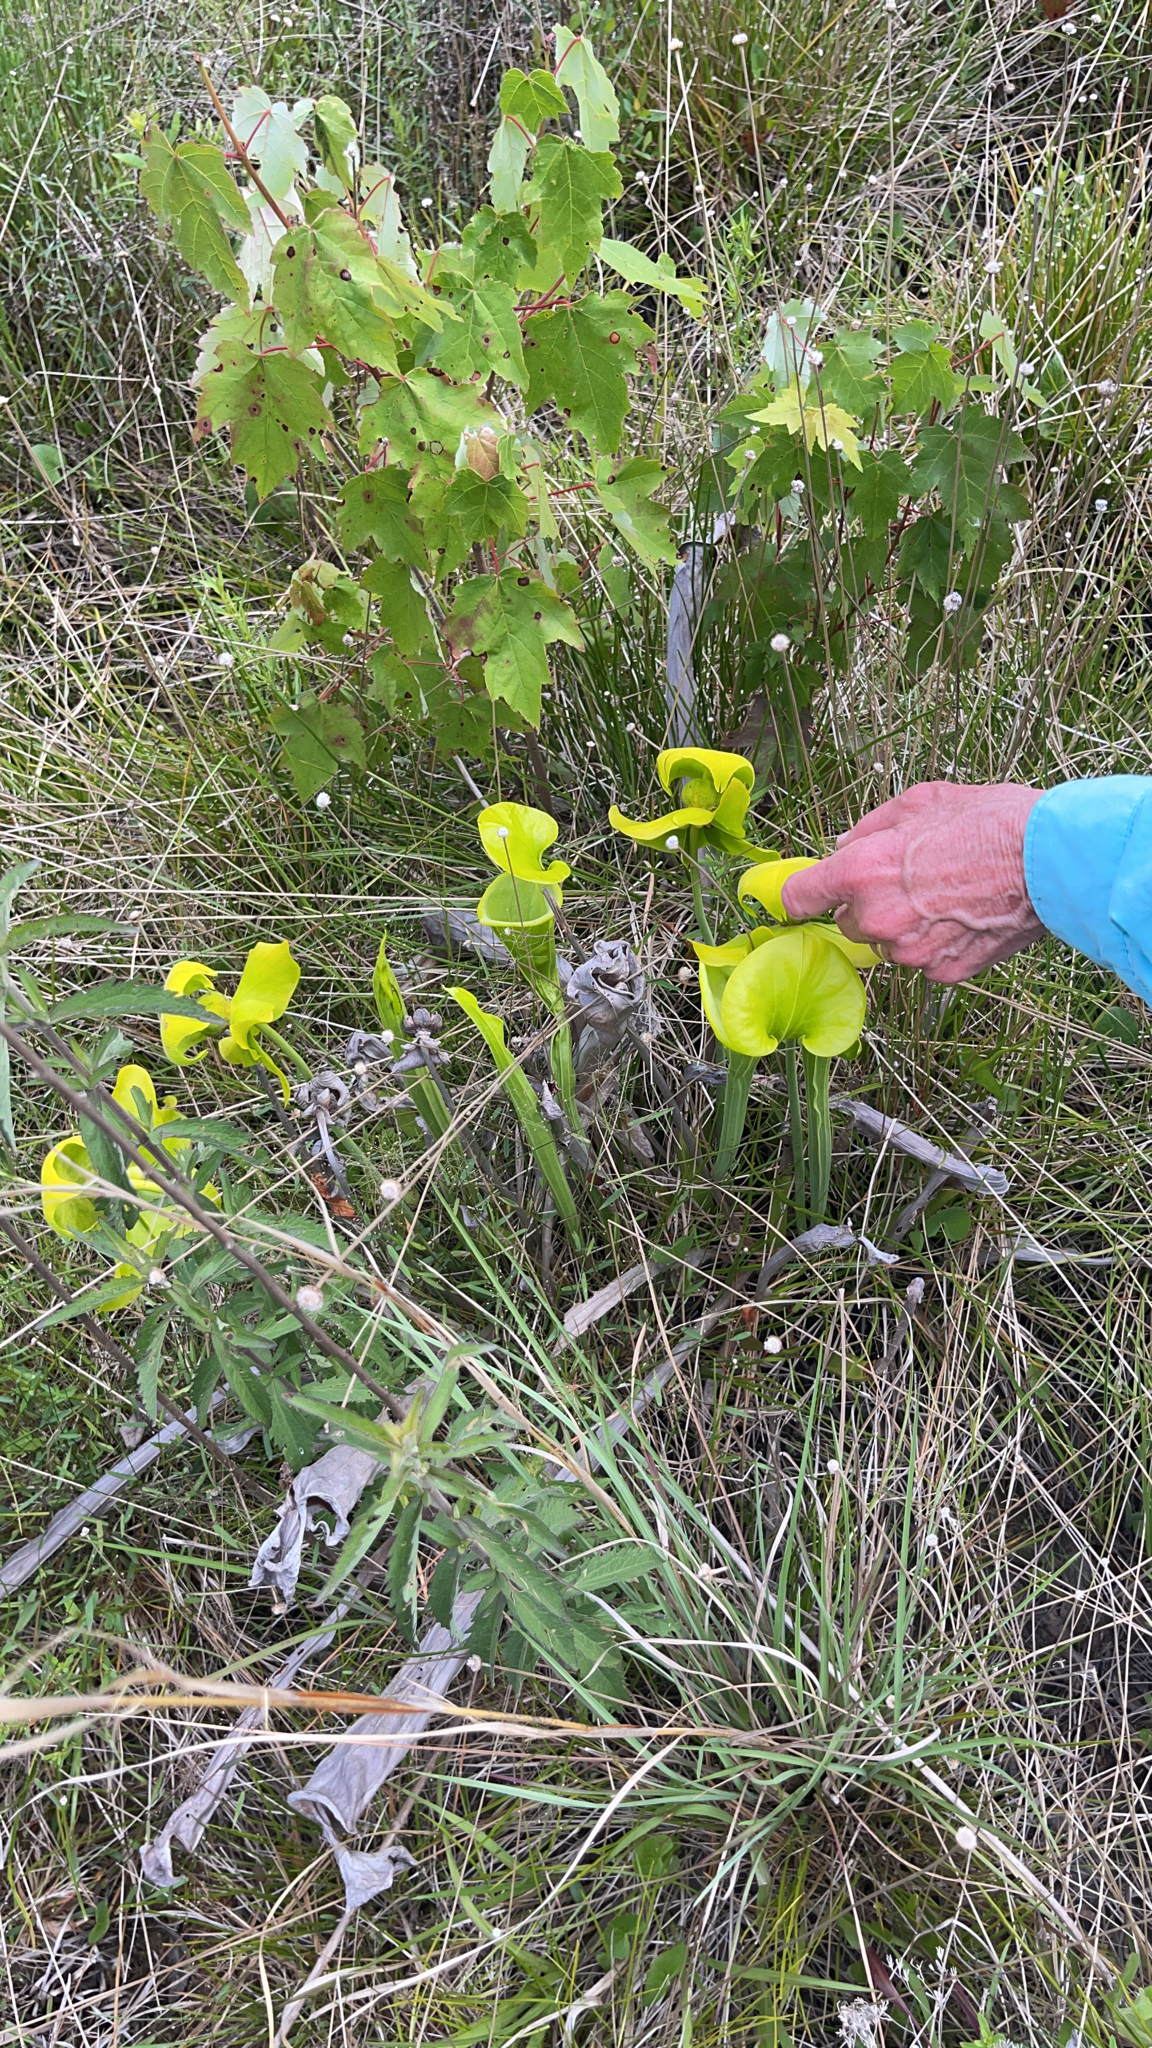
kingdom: Plantae
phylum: Tracheophyta
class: Magnoliopsida
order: Ericales
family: Sarraceniaceae
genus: Sarracenia
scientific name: Sarracenia flava
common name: Trumpets
